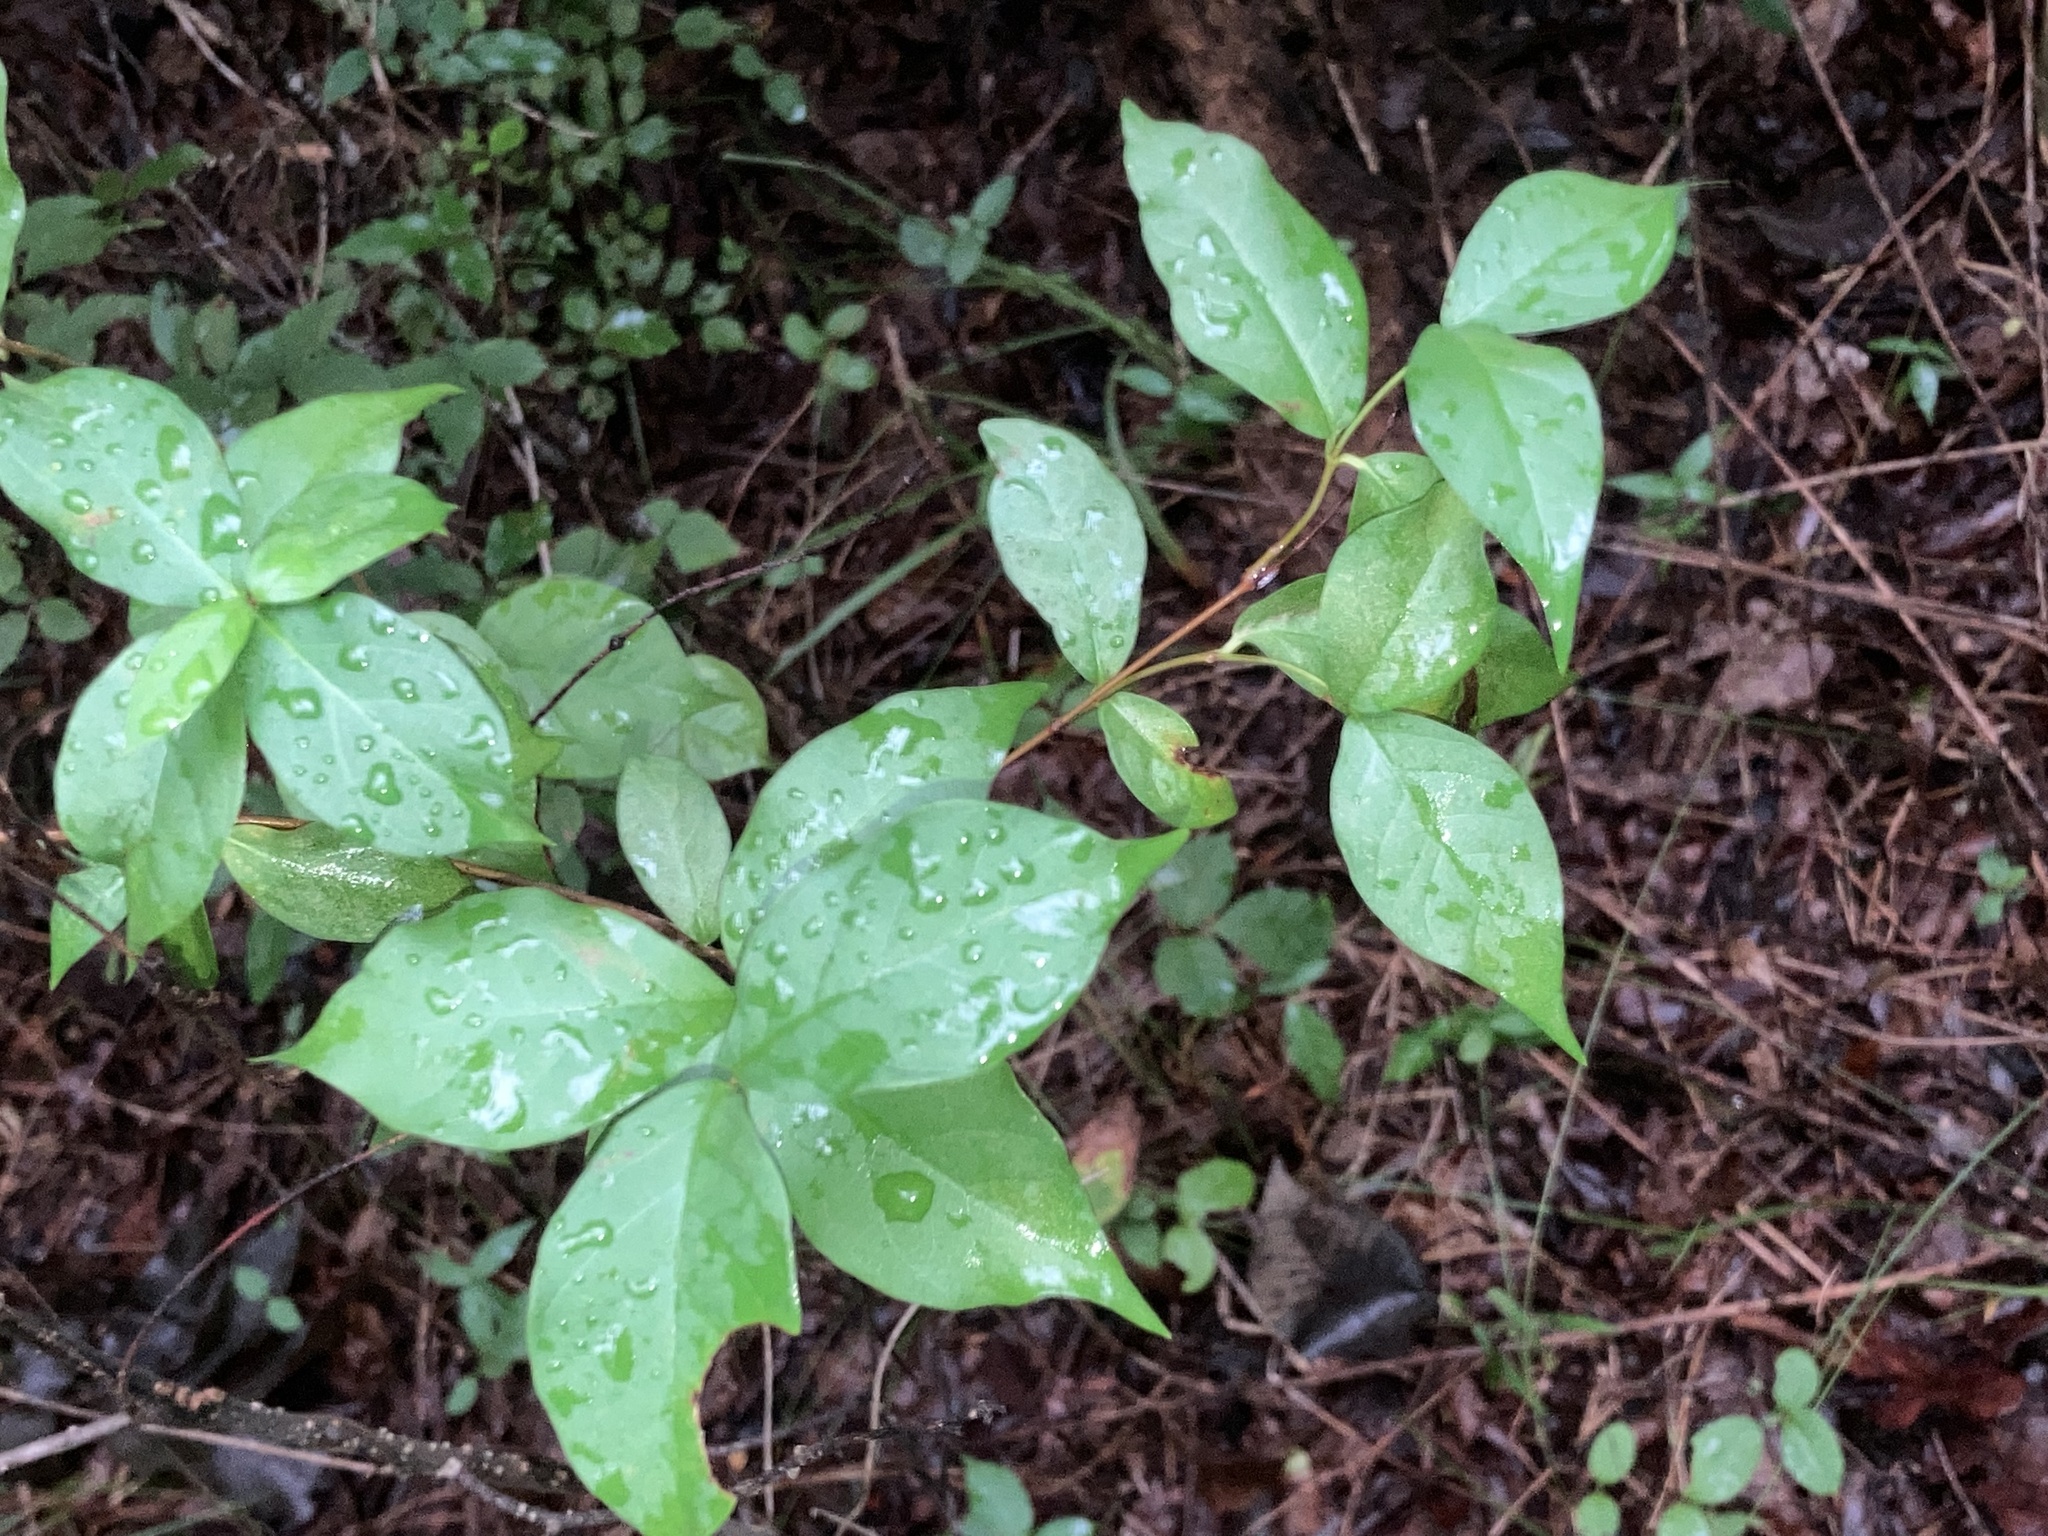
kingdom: Plantae
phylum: Tracheophyta
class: Magnoliopsida
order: Gentianales
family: Apocynaceae
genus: Thyrsanthella
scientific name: Thyrsanthella difformis
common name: Climbing dogbane
